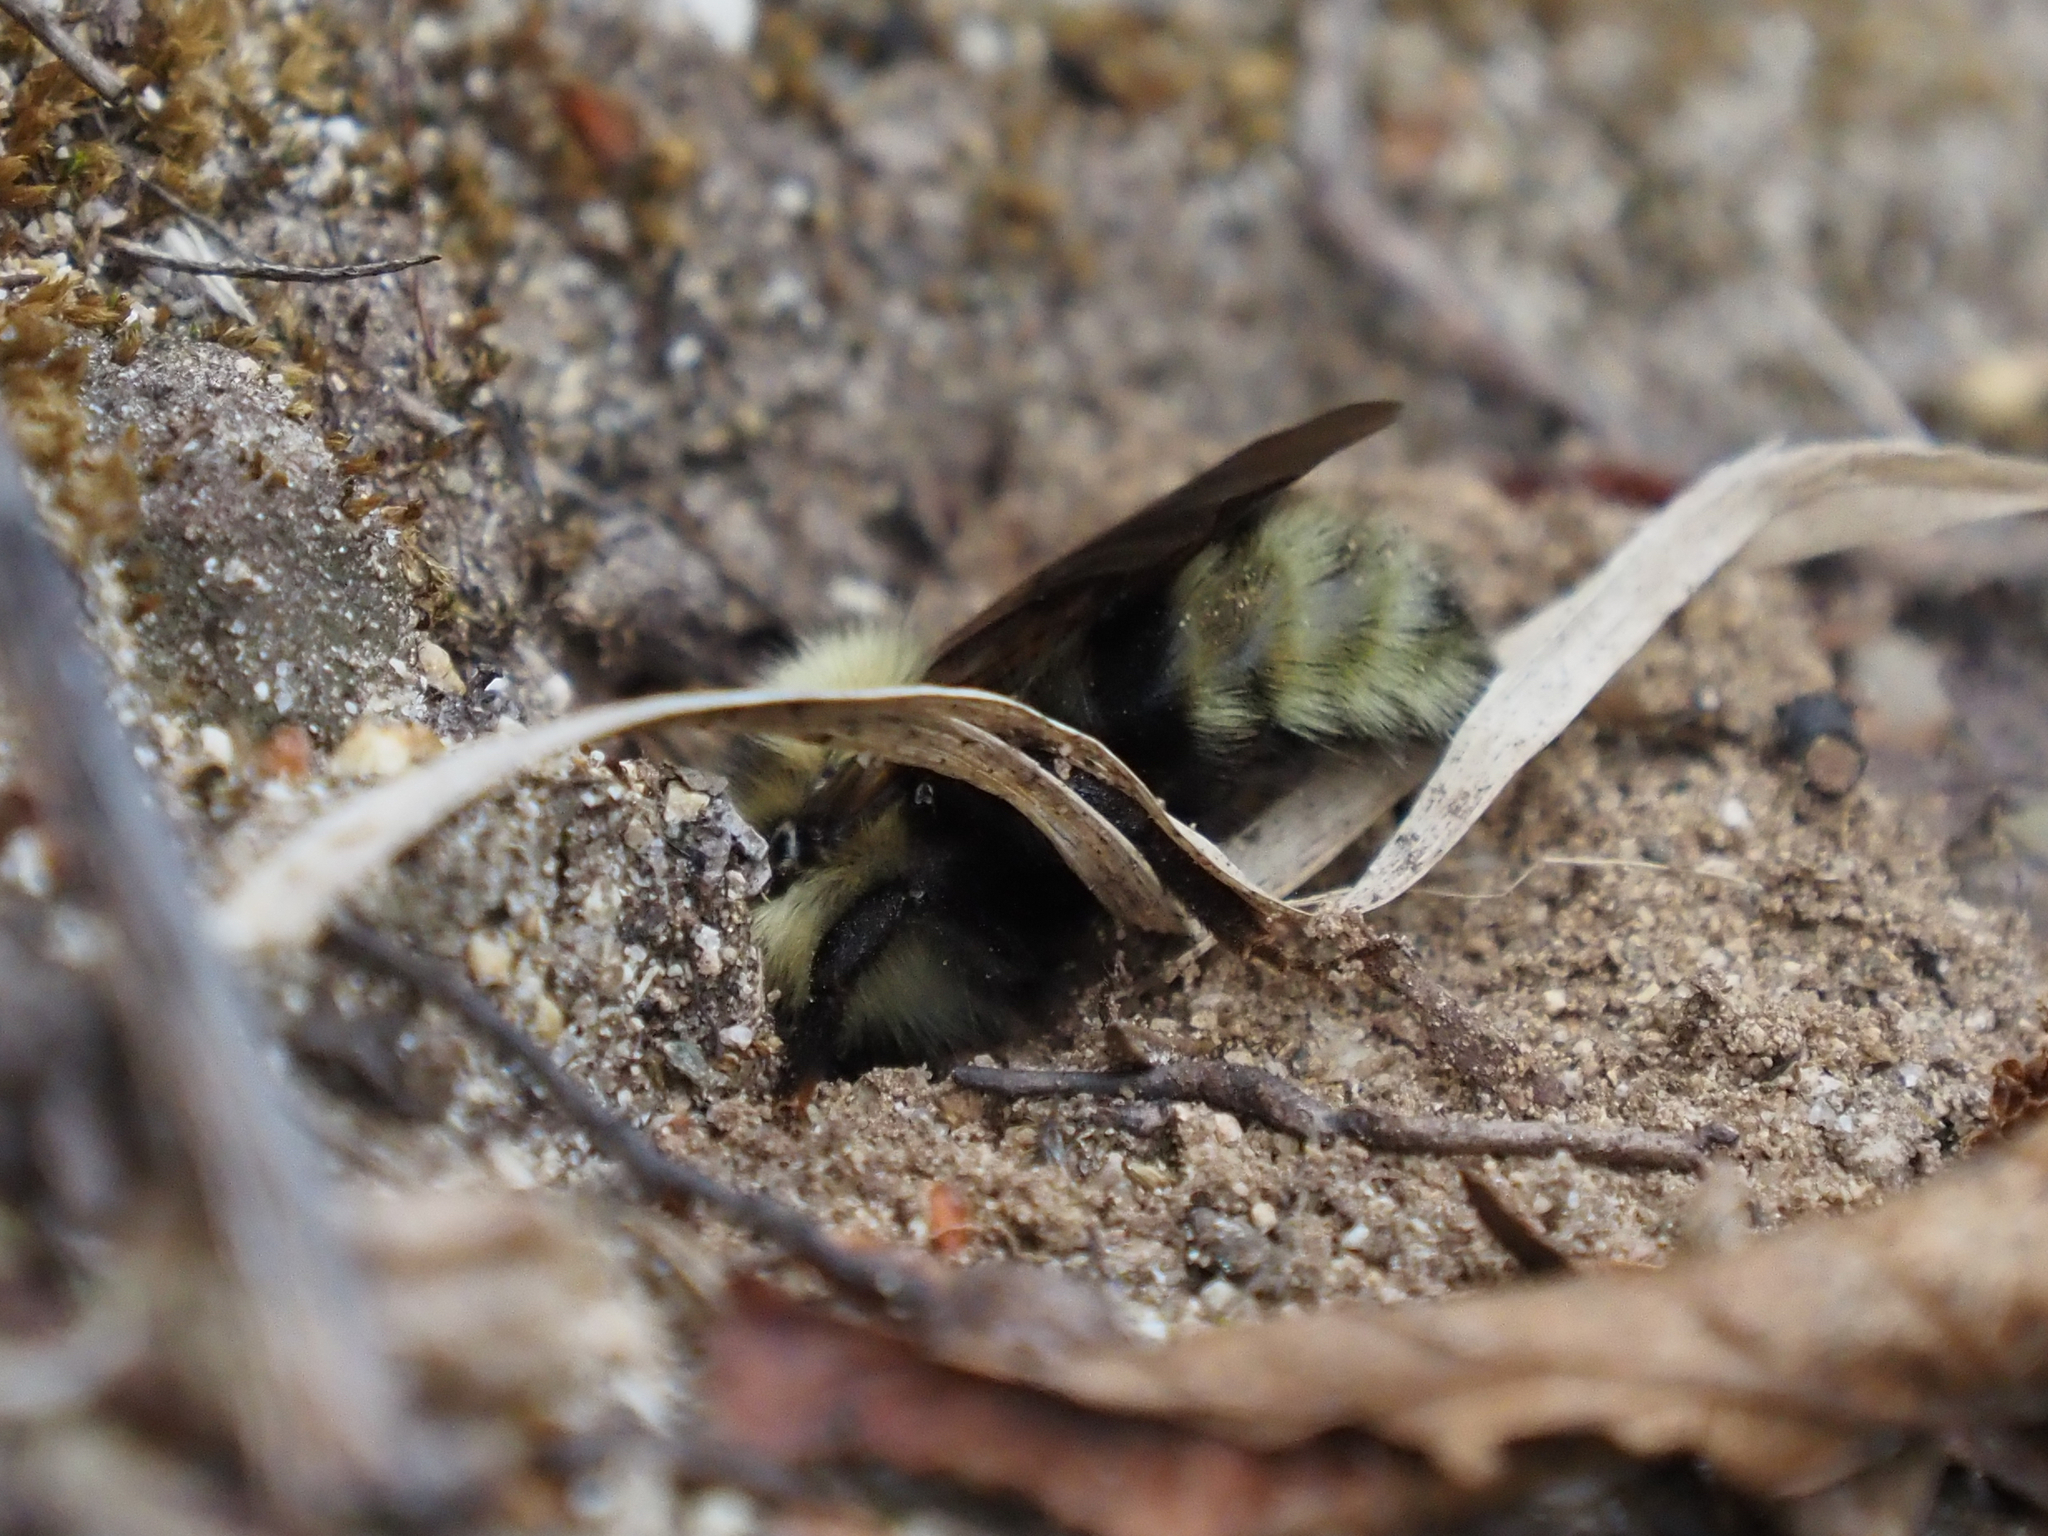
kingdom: Animalia
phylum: Arthropoda
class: Insecta
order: Hymenoptera
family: Apidae
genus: Bombus
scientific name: Bombus insularis
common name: Indiscriminate cuckoo bumble bee
